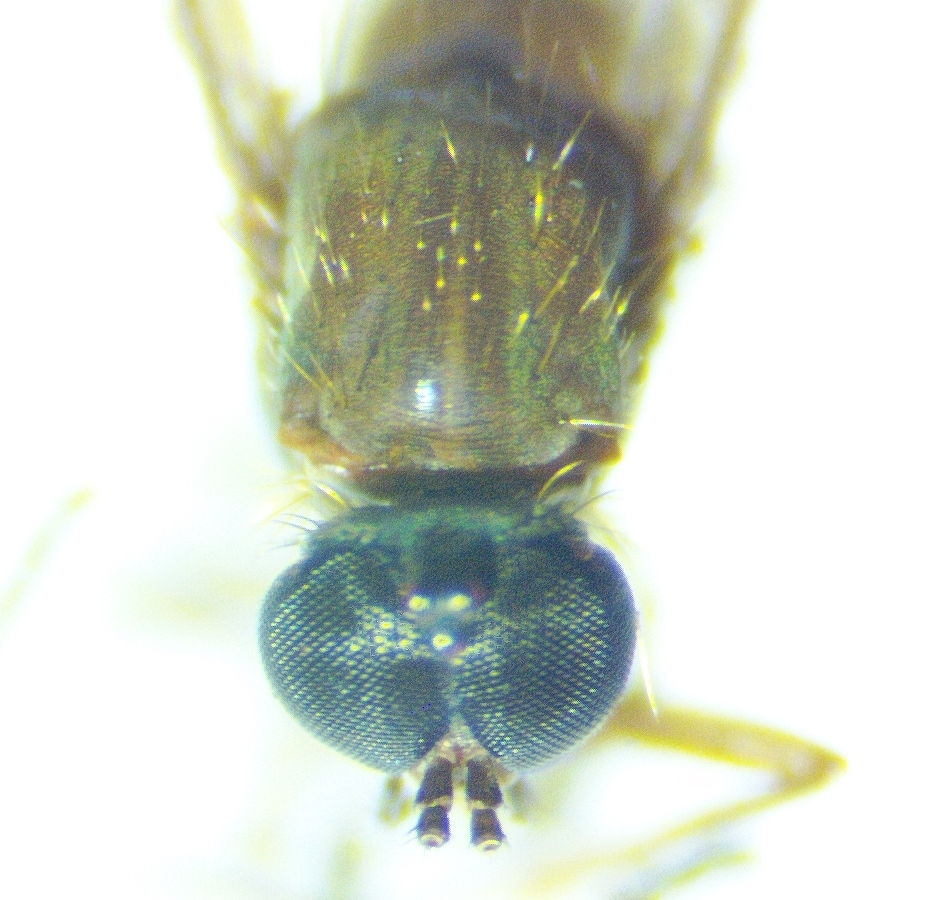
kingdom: Animalia
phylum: Arthropoda
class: Insecta
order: Diptera
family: Anisopodidae
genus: Sylvicola
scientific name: Sylvicola alternata
